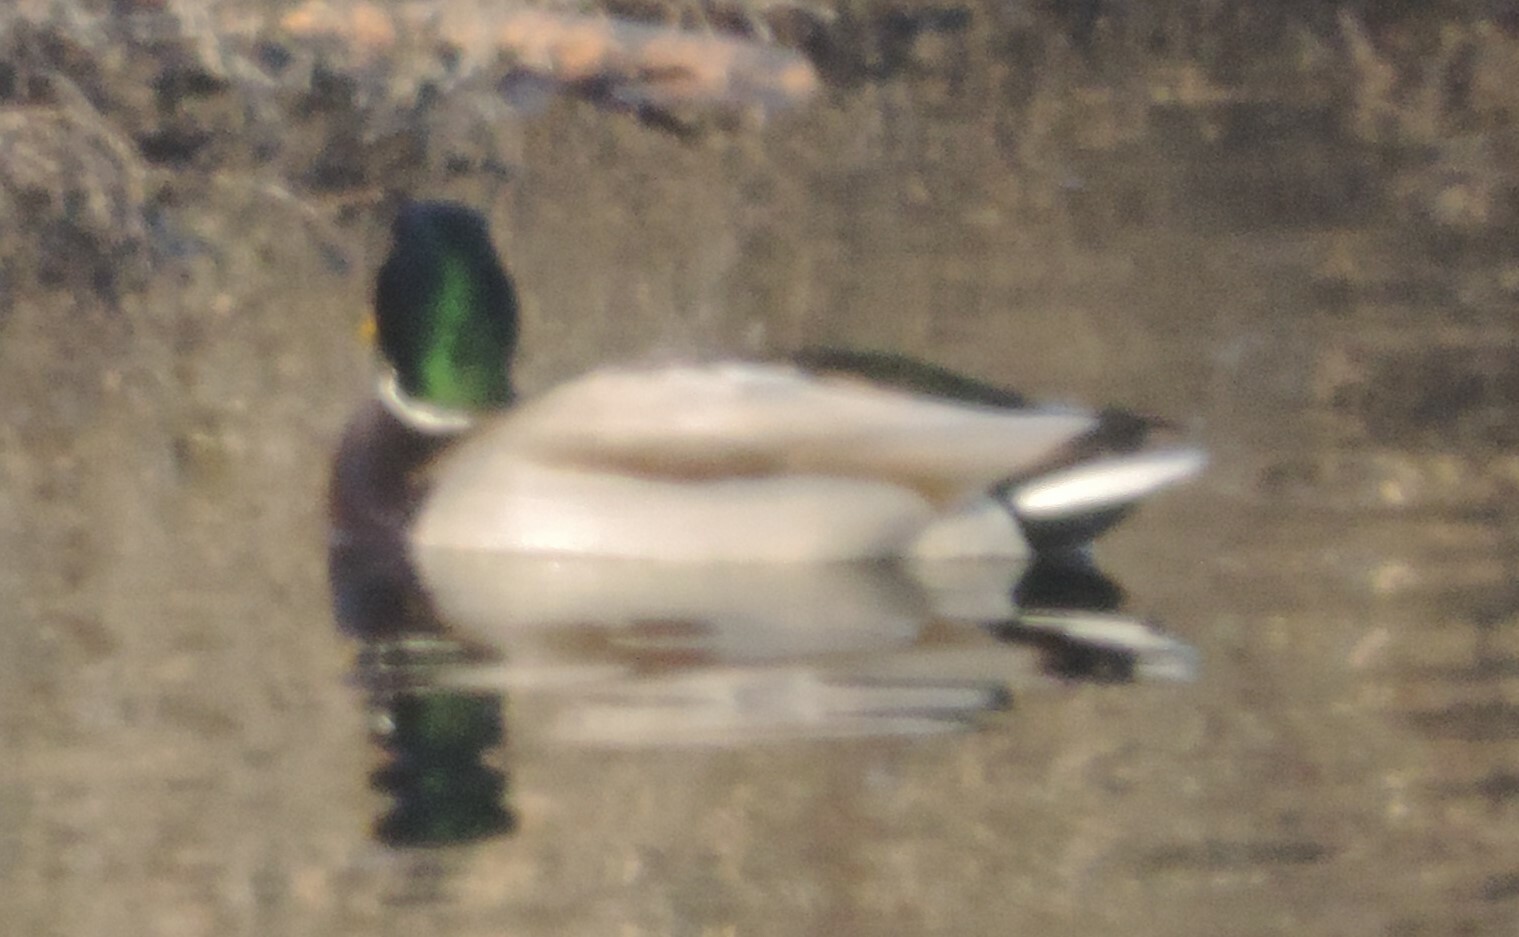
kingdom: Animalia
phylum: Chordata
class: Aves
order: Anseriformes
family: Anatidae
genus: Anas
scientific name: Anas platyrhynchos
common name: Mallard
